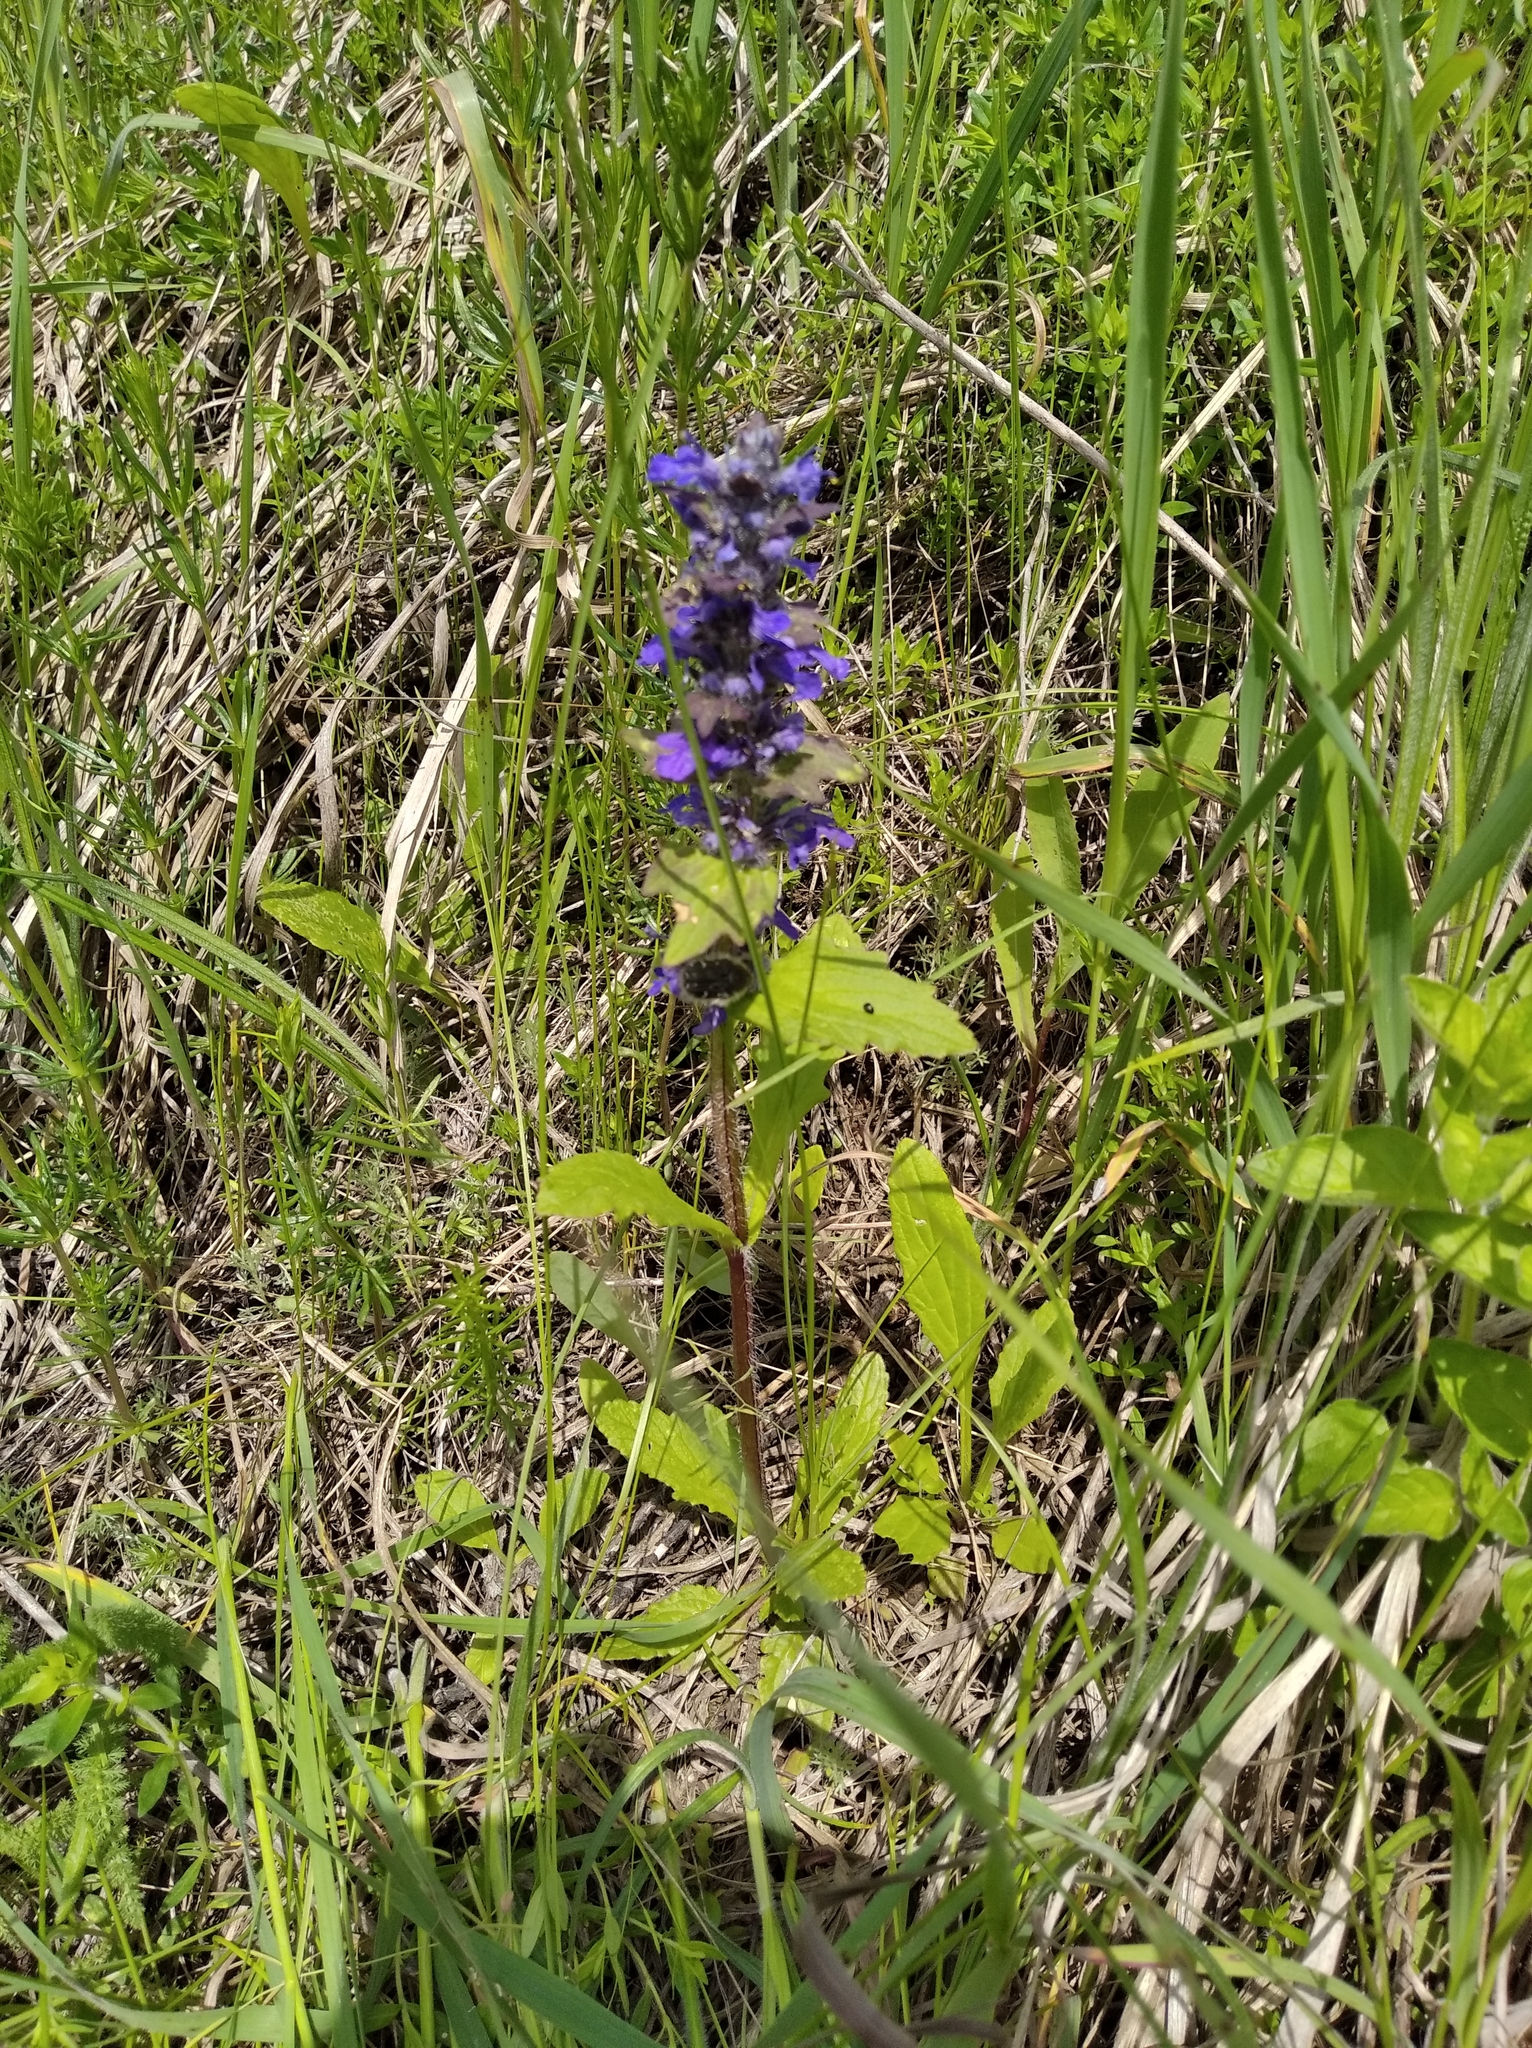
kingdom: Plantae
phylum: Tracheophyta
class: Magnoliopsida
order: Lamiales
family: Lamiaceae
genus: Ajuga
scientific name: Ajuga genevensis
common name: Blue bugle
